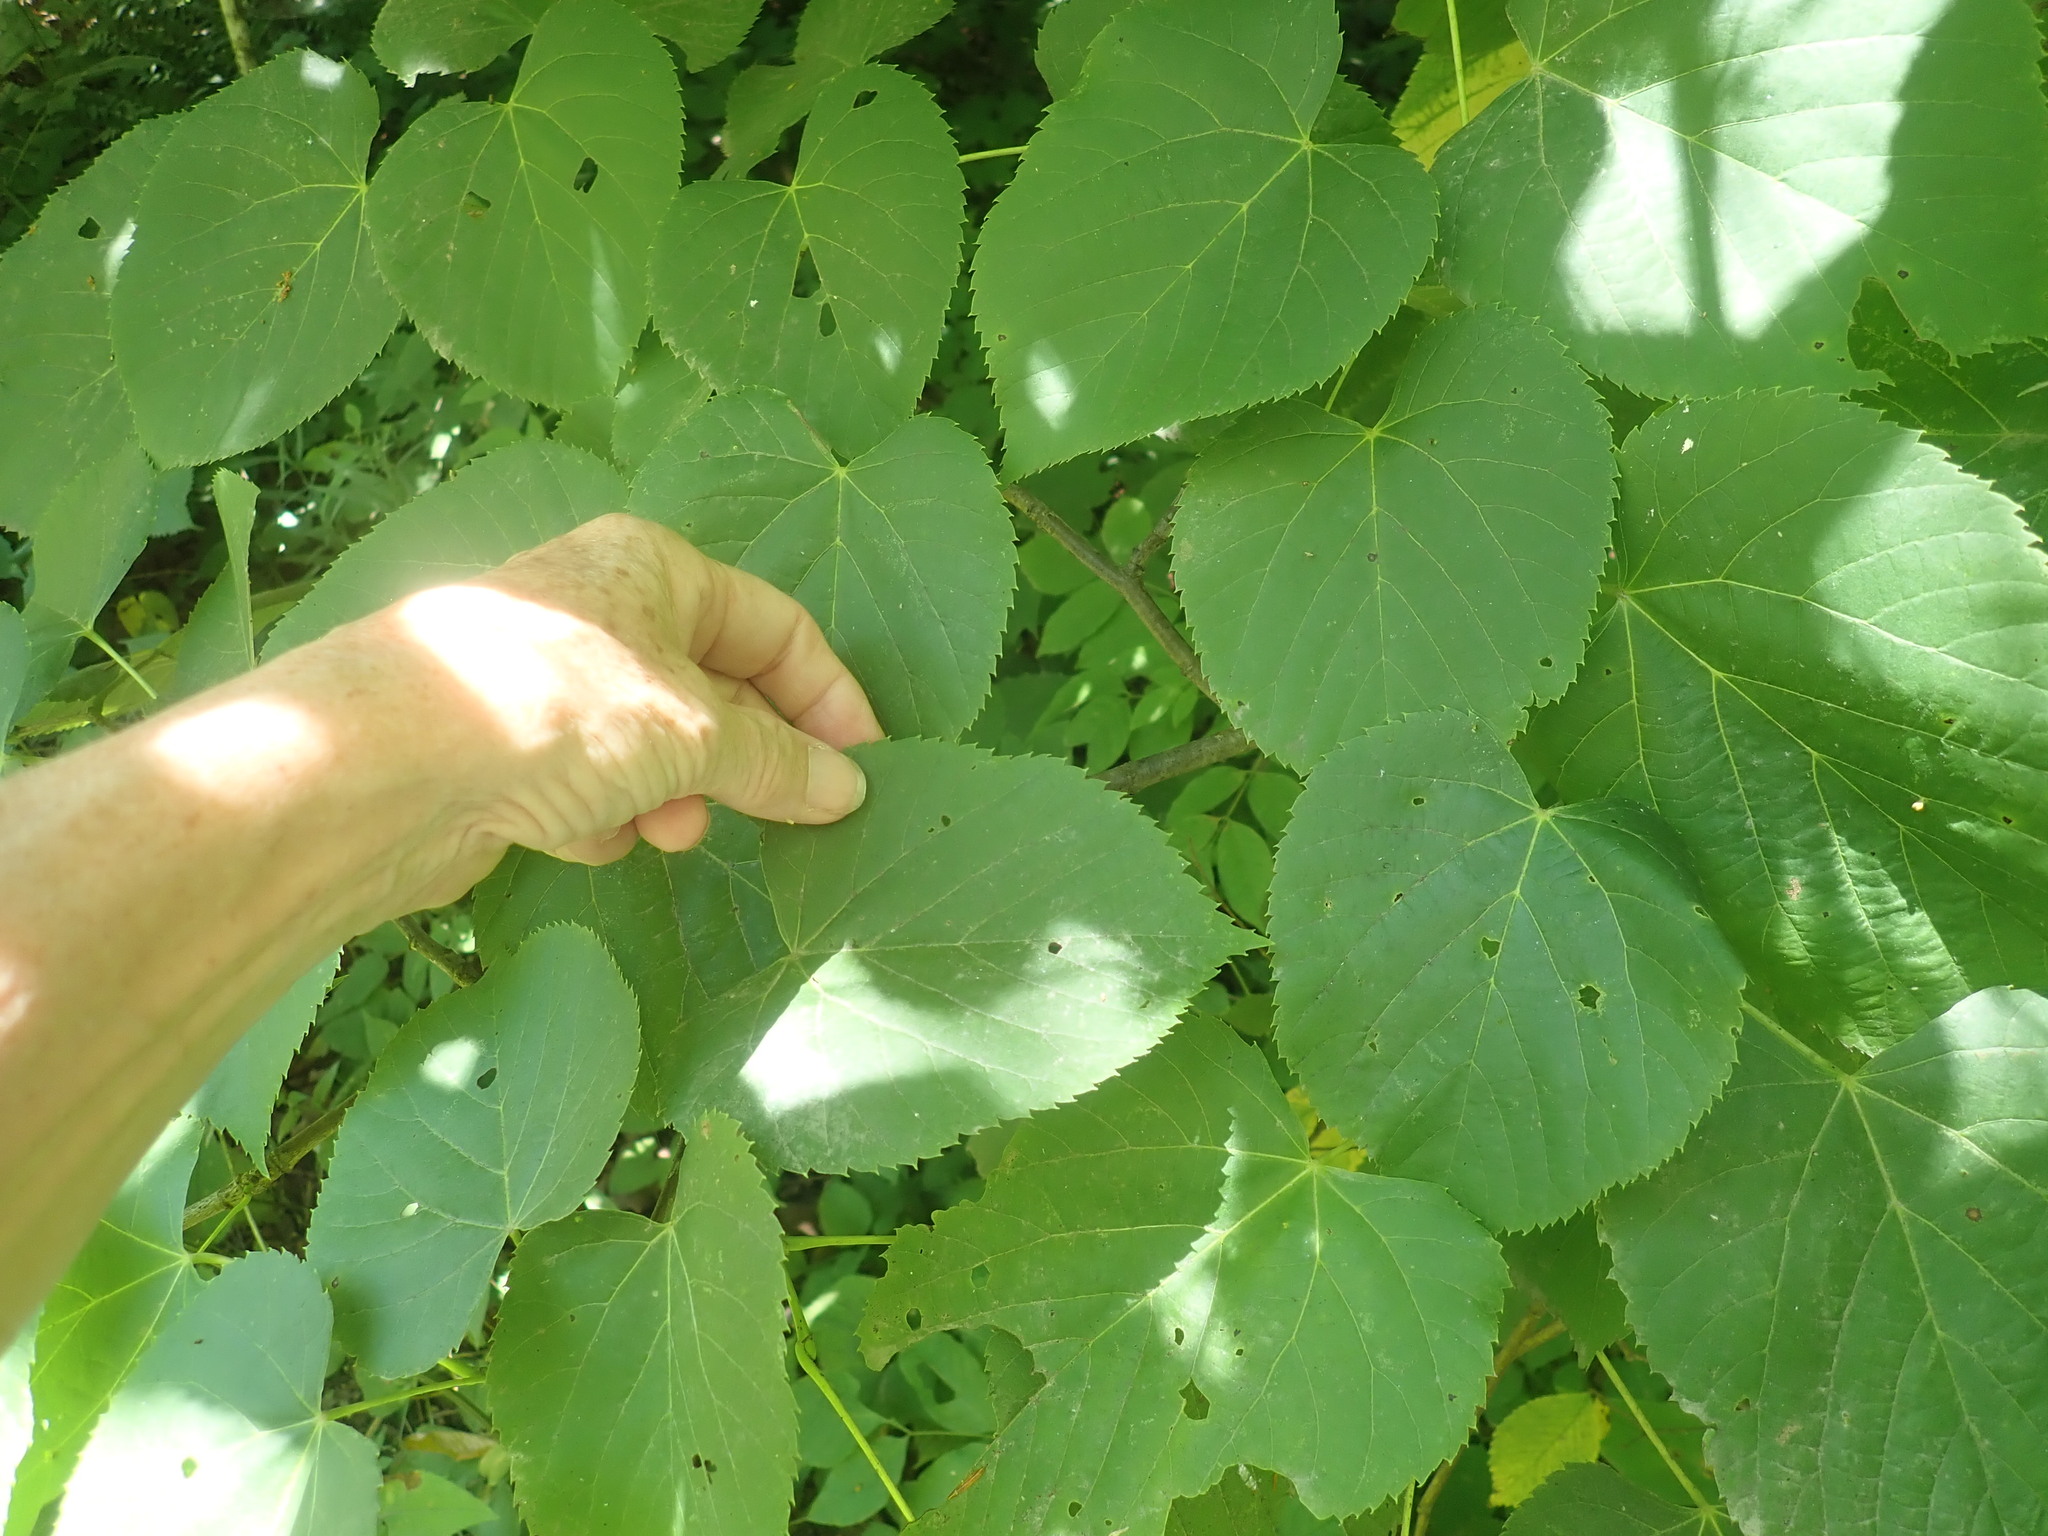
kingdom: Plantae
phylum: Tracheophyta
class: Magnoliopsida
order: Malvales
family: Malvaceae
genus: Tilia
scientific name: Tilia americana
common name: Basswood
